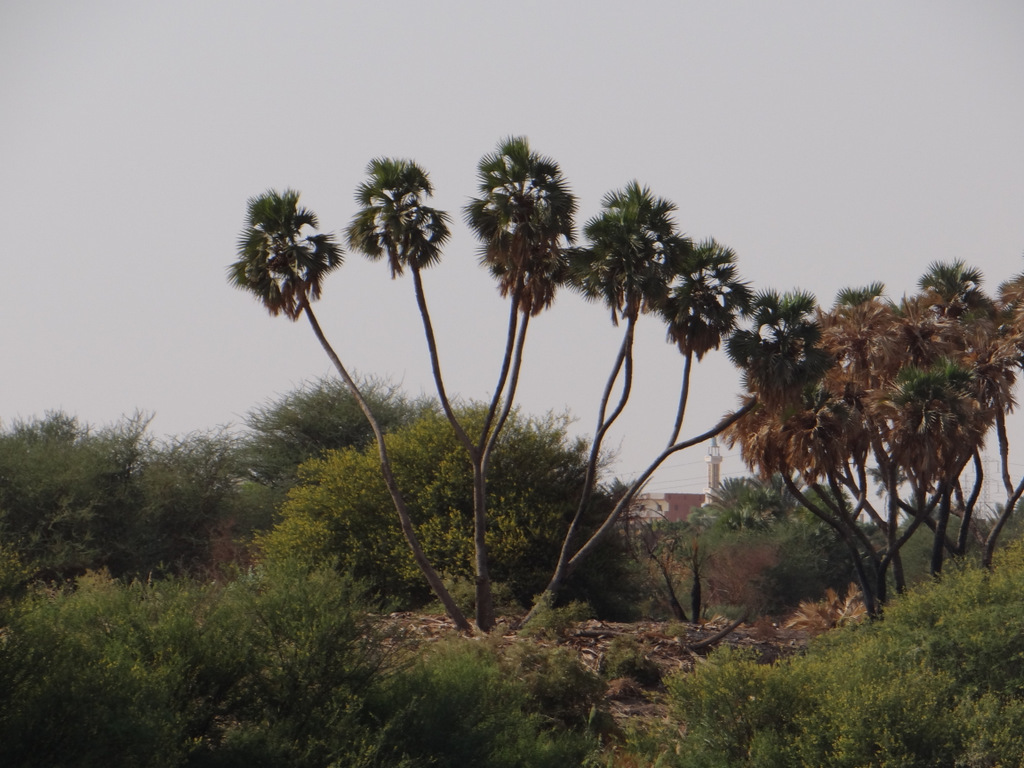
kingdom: Plantae
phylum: Tracheophyta
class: Liliopsida
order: Arecales
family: Arecaceae
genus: Hyphaene
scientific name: Hyphaene thebaica
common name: Doum palm
